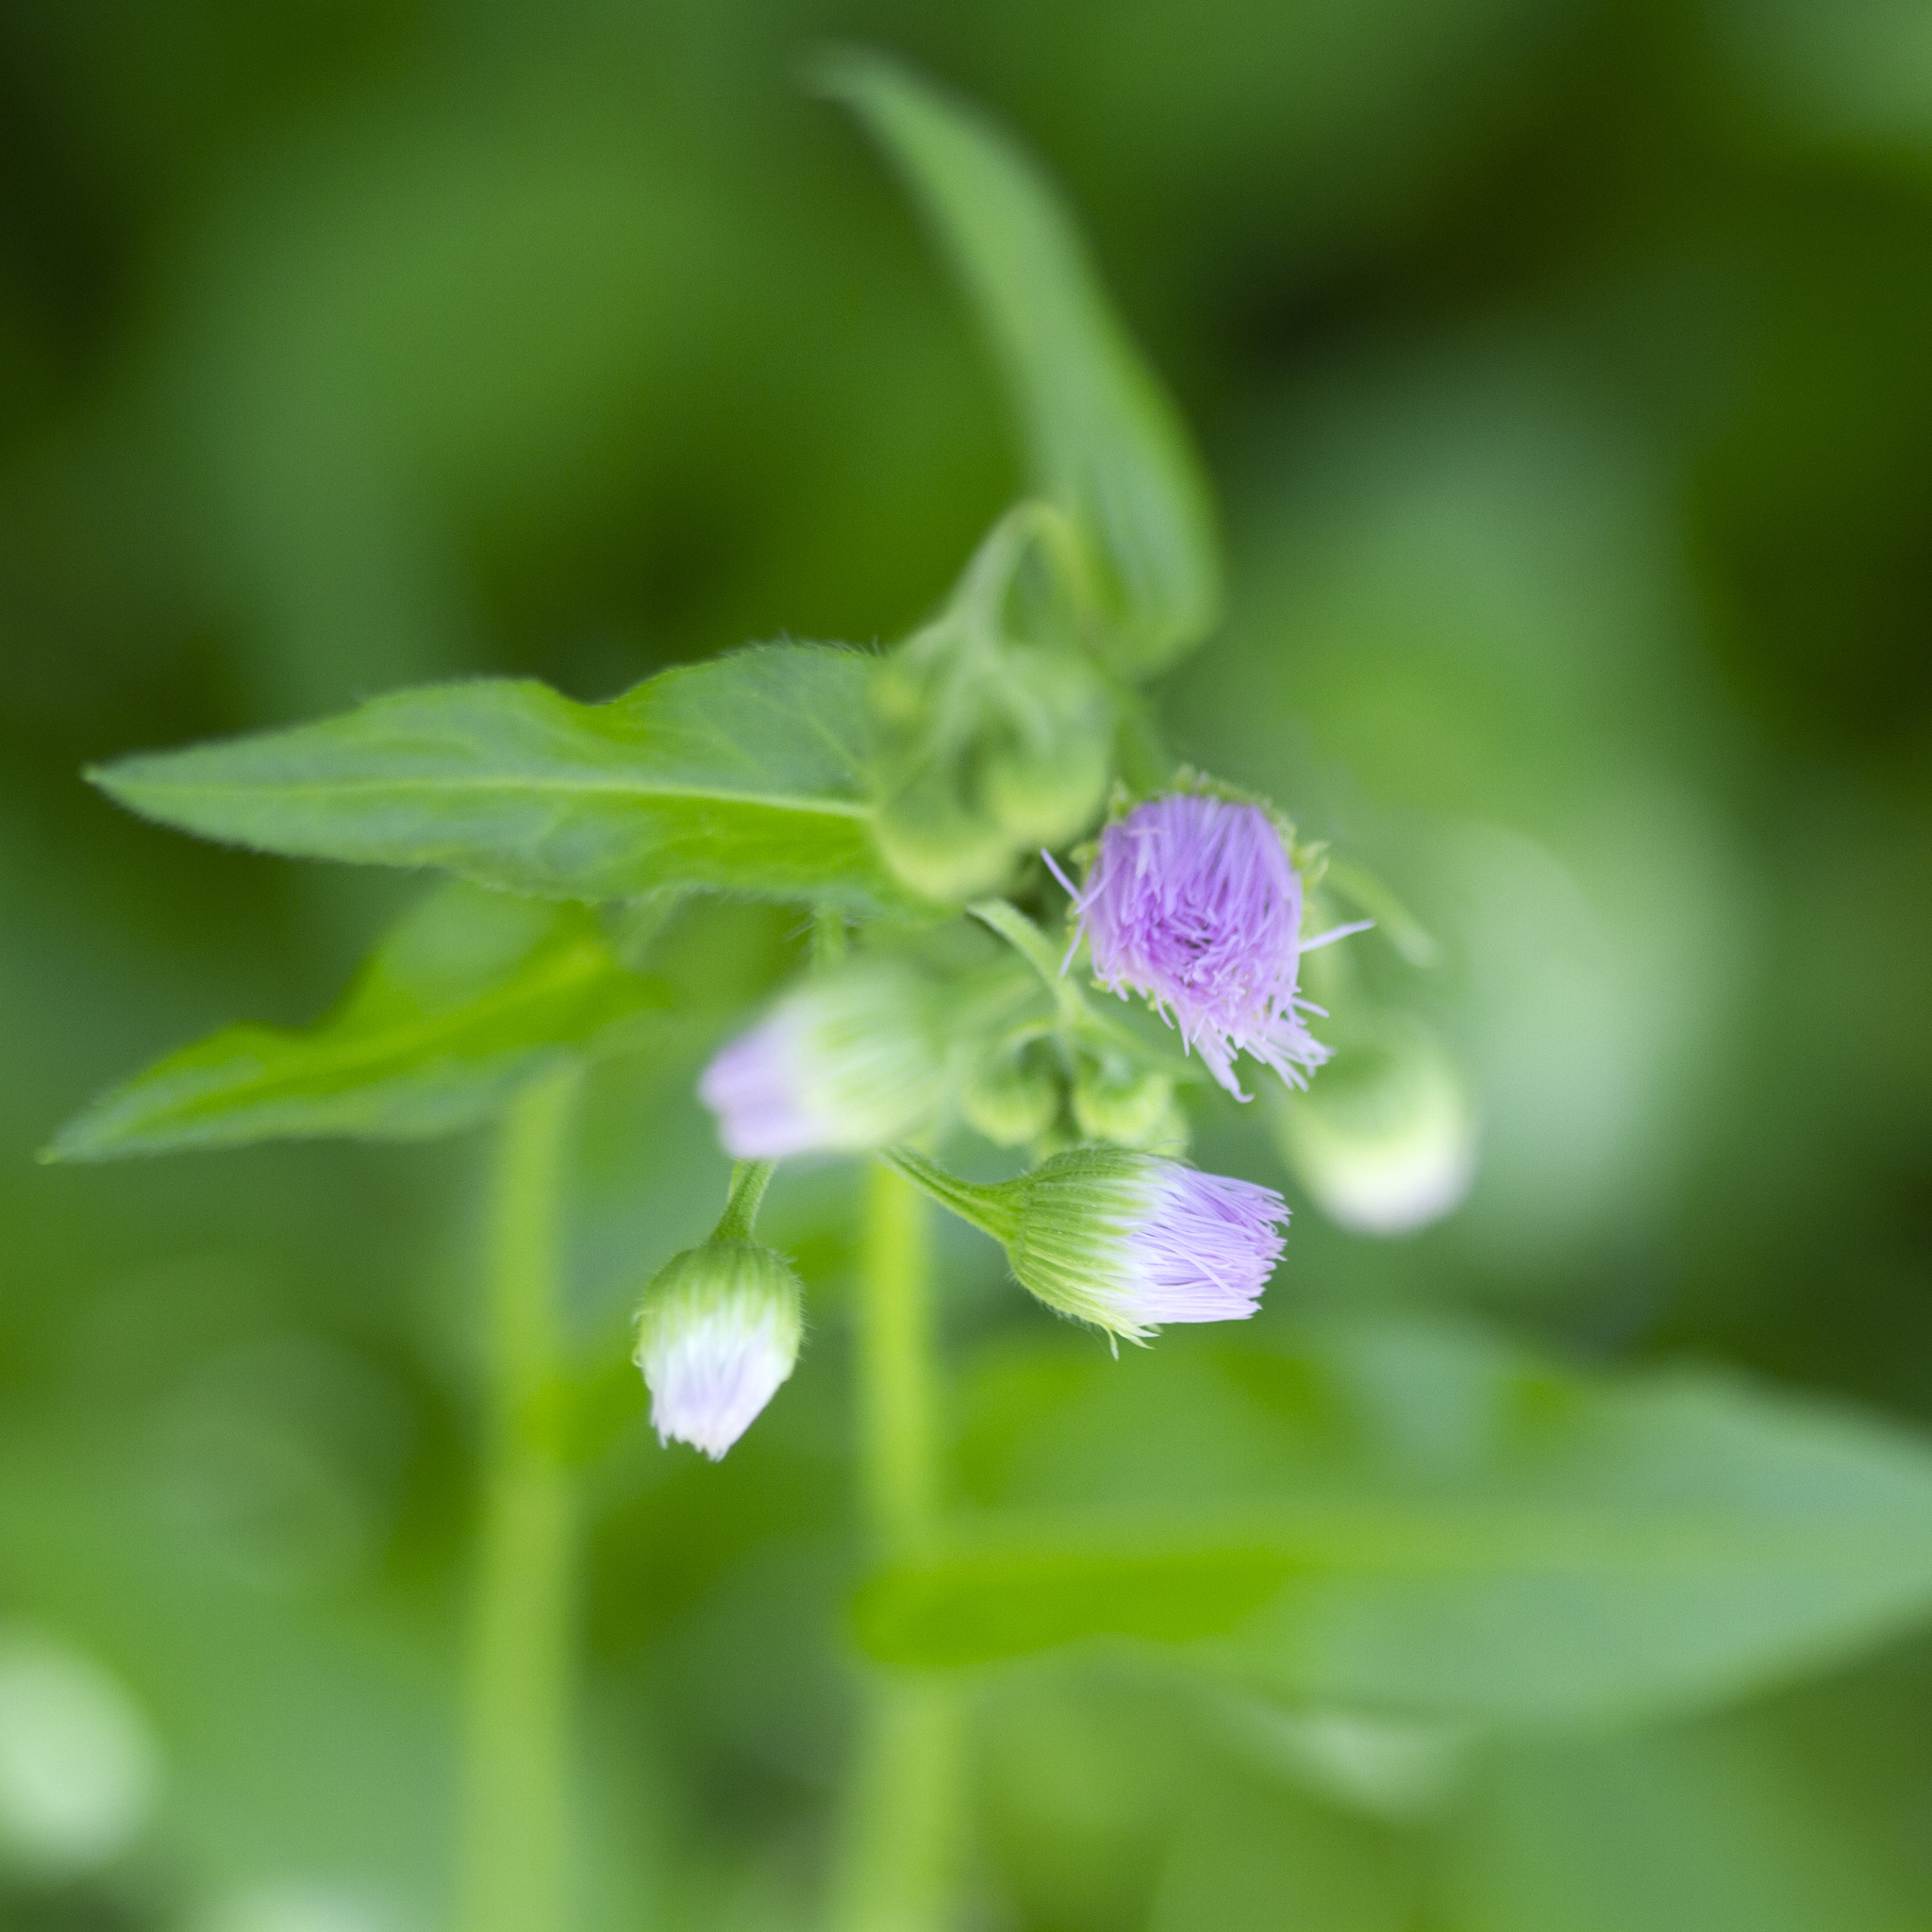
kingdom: Plantae
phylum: Tracheophyta
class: Magnoliopsida
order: Asterales
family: Asteraceae
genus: Erigeron
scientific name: Erigeron philadelphicus
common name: Robin's-plantain
